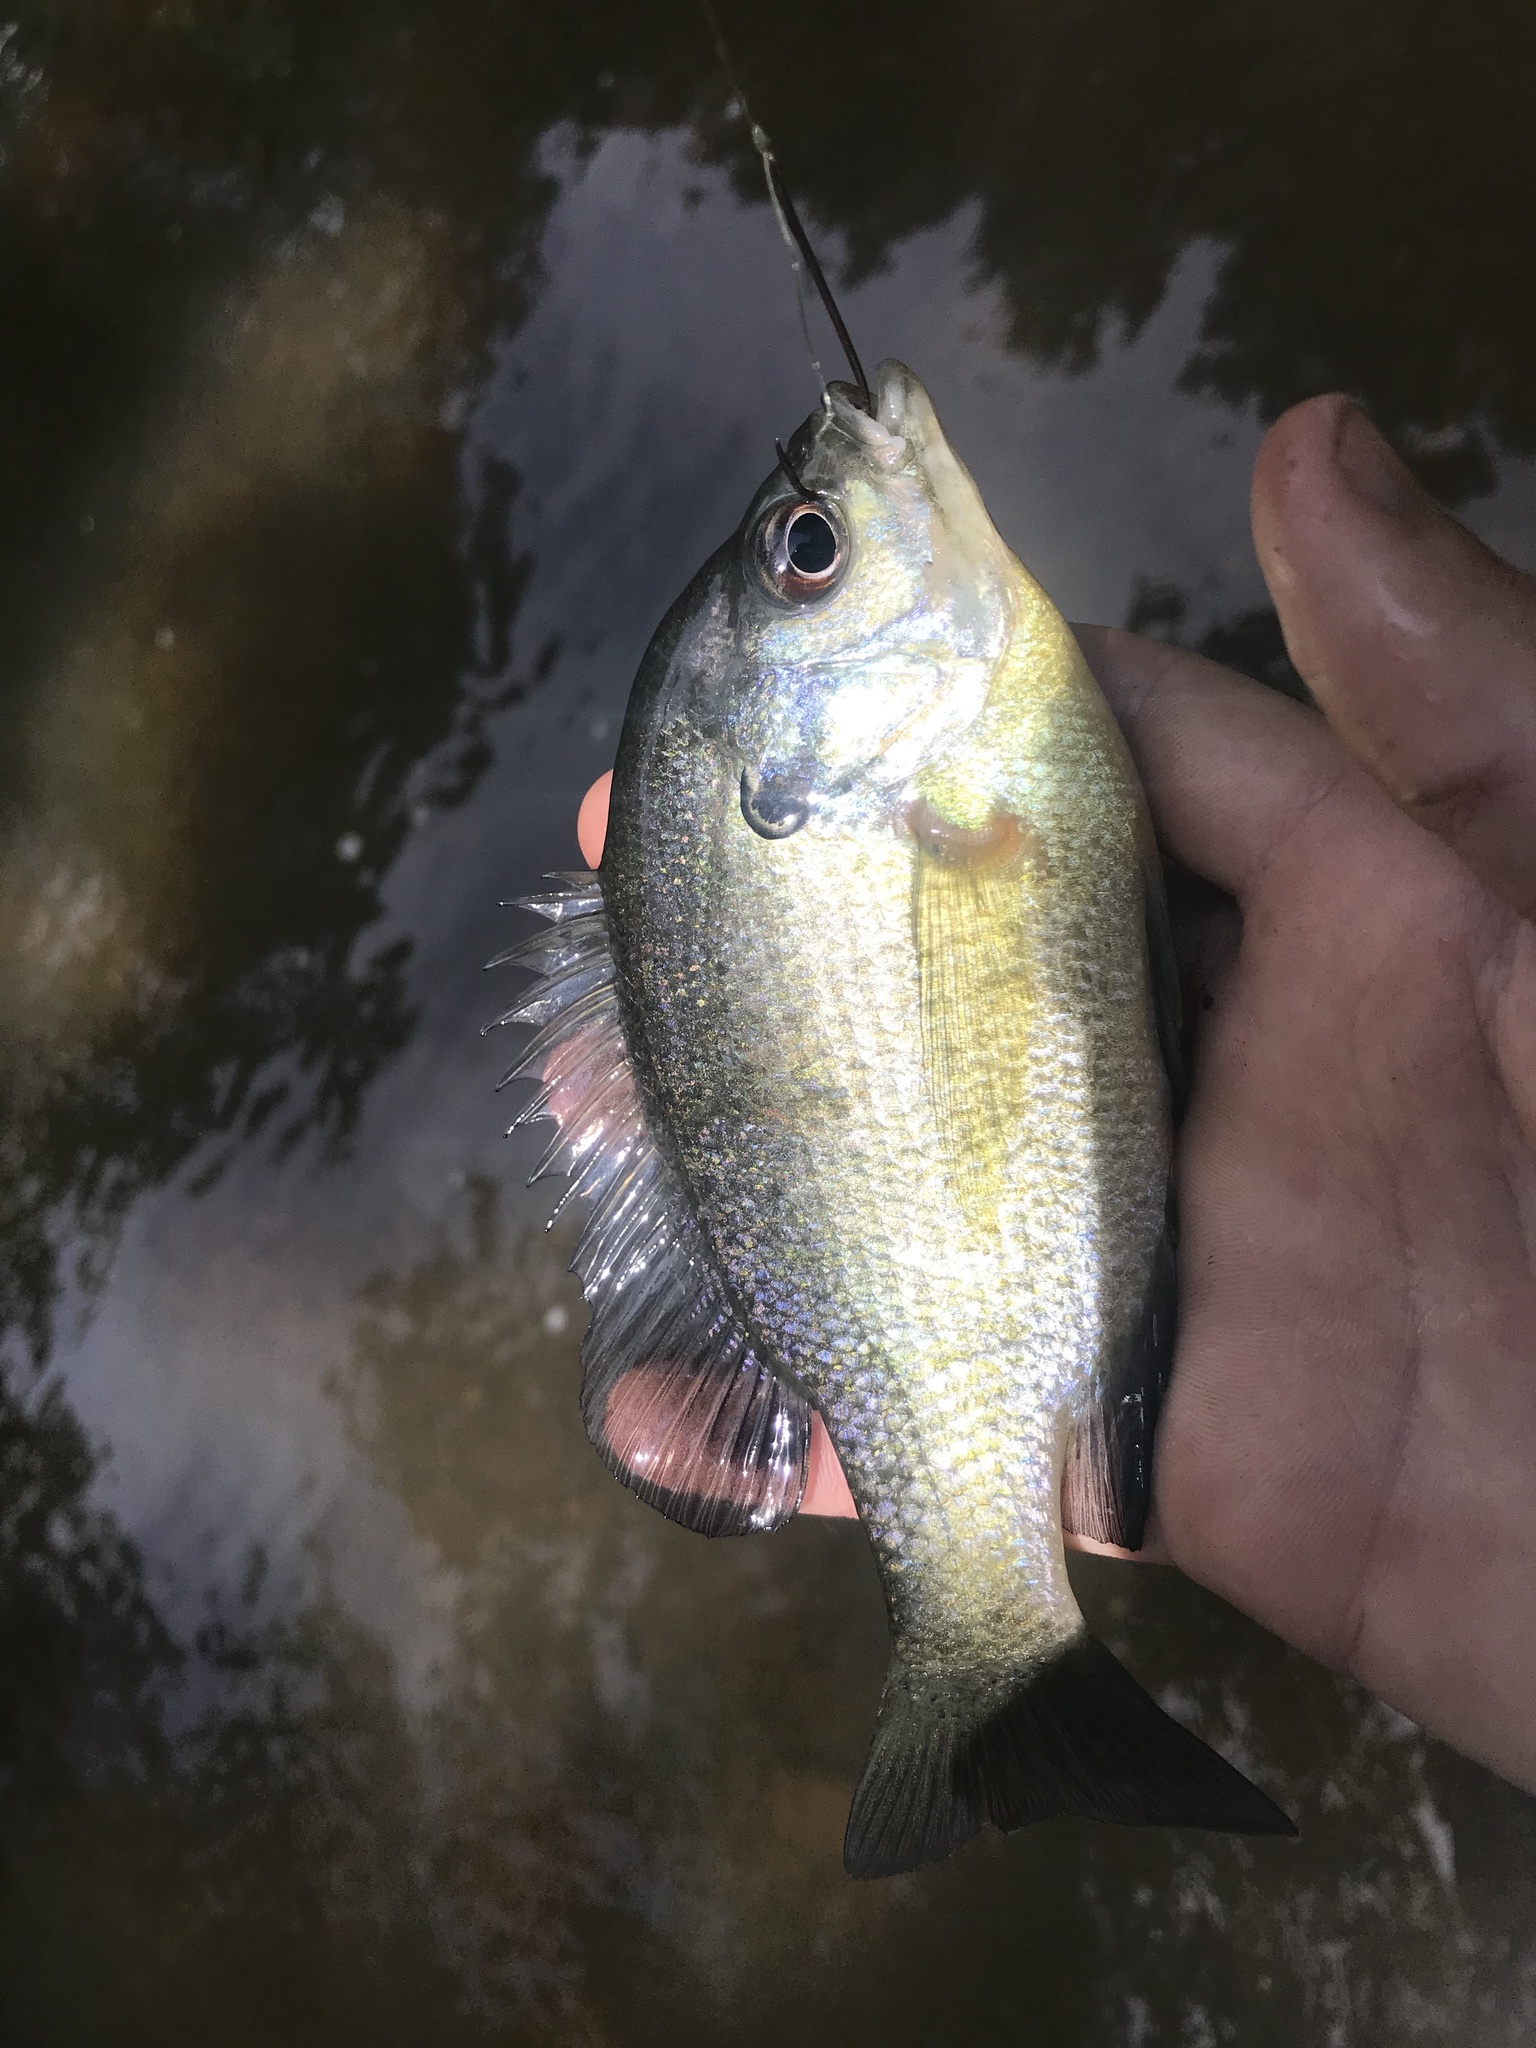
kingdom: Animalia
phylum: Chordata
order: Perciformes
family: Centrarchidae
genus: Lepomis
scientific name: Lepomis macrochirus
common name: Bluegill
